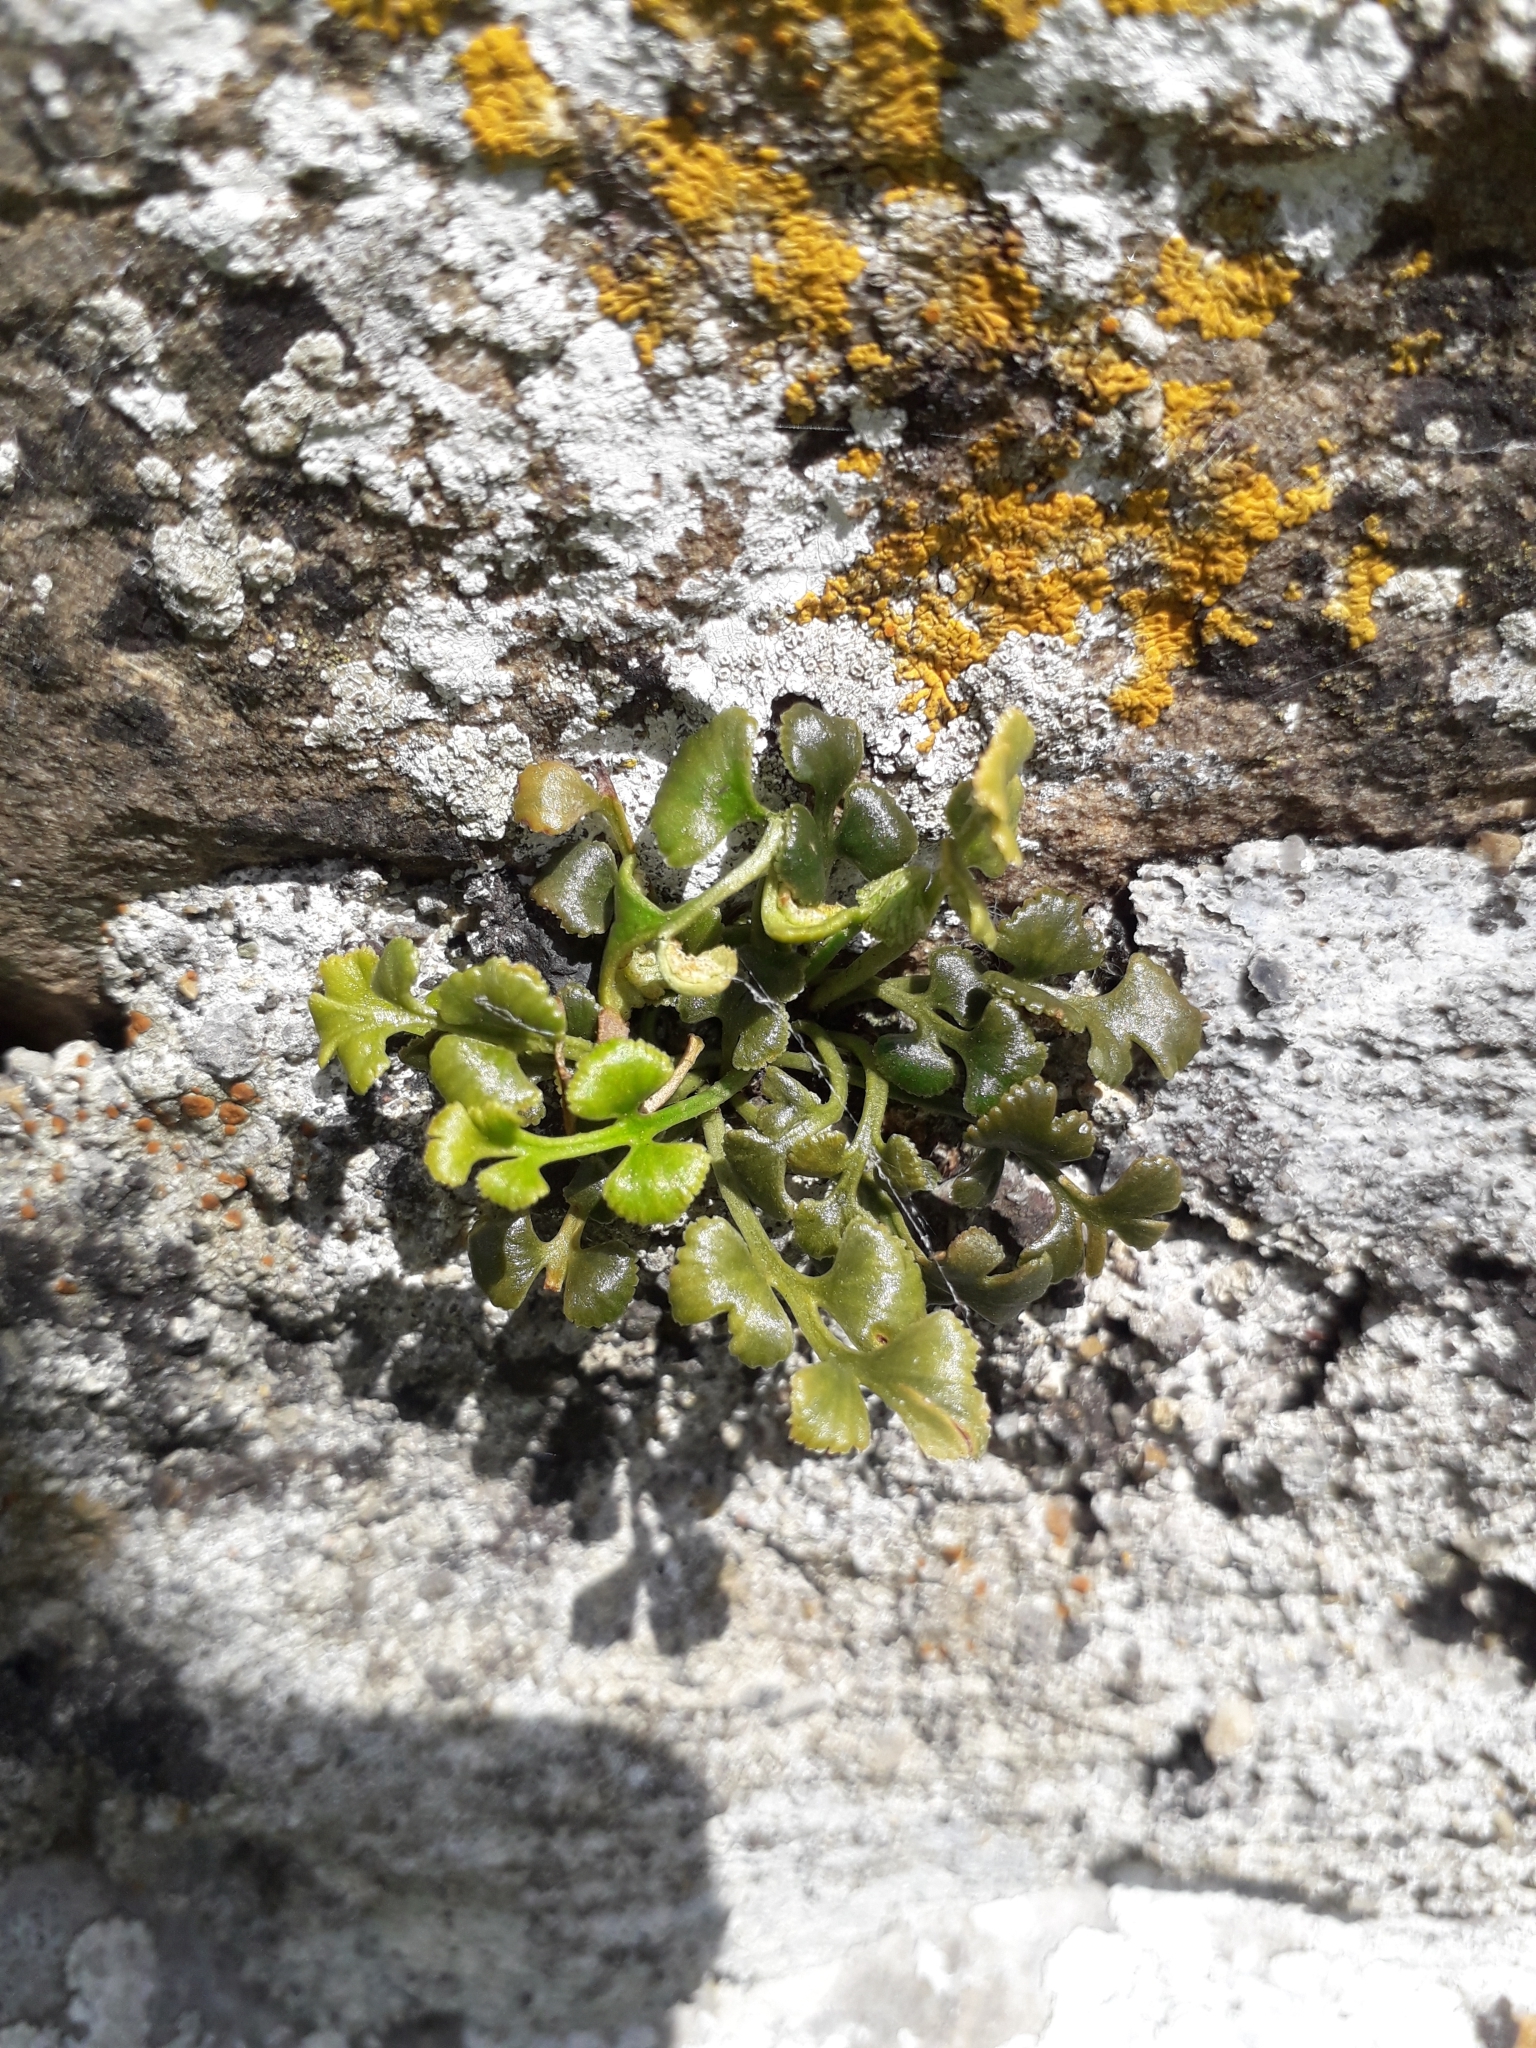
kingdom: Plantae
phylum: Tracheophyta
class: Polypodiopsida
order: Polypodiales
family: Aspleniaceae
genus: Asplenium
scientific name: Asplenium ruta-muraria
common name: Wall-rue
